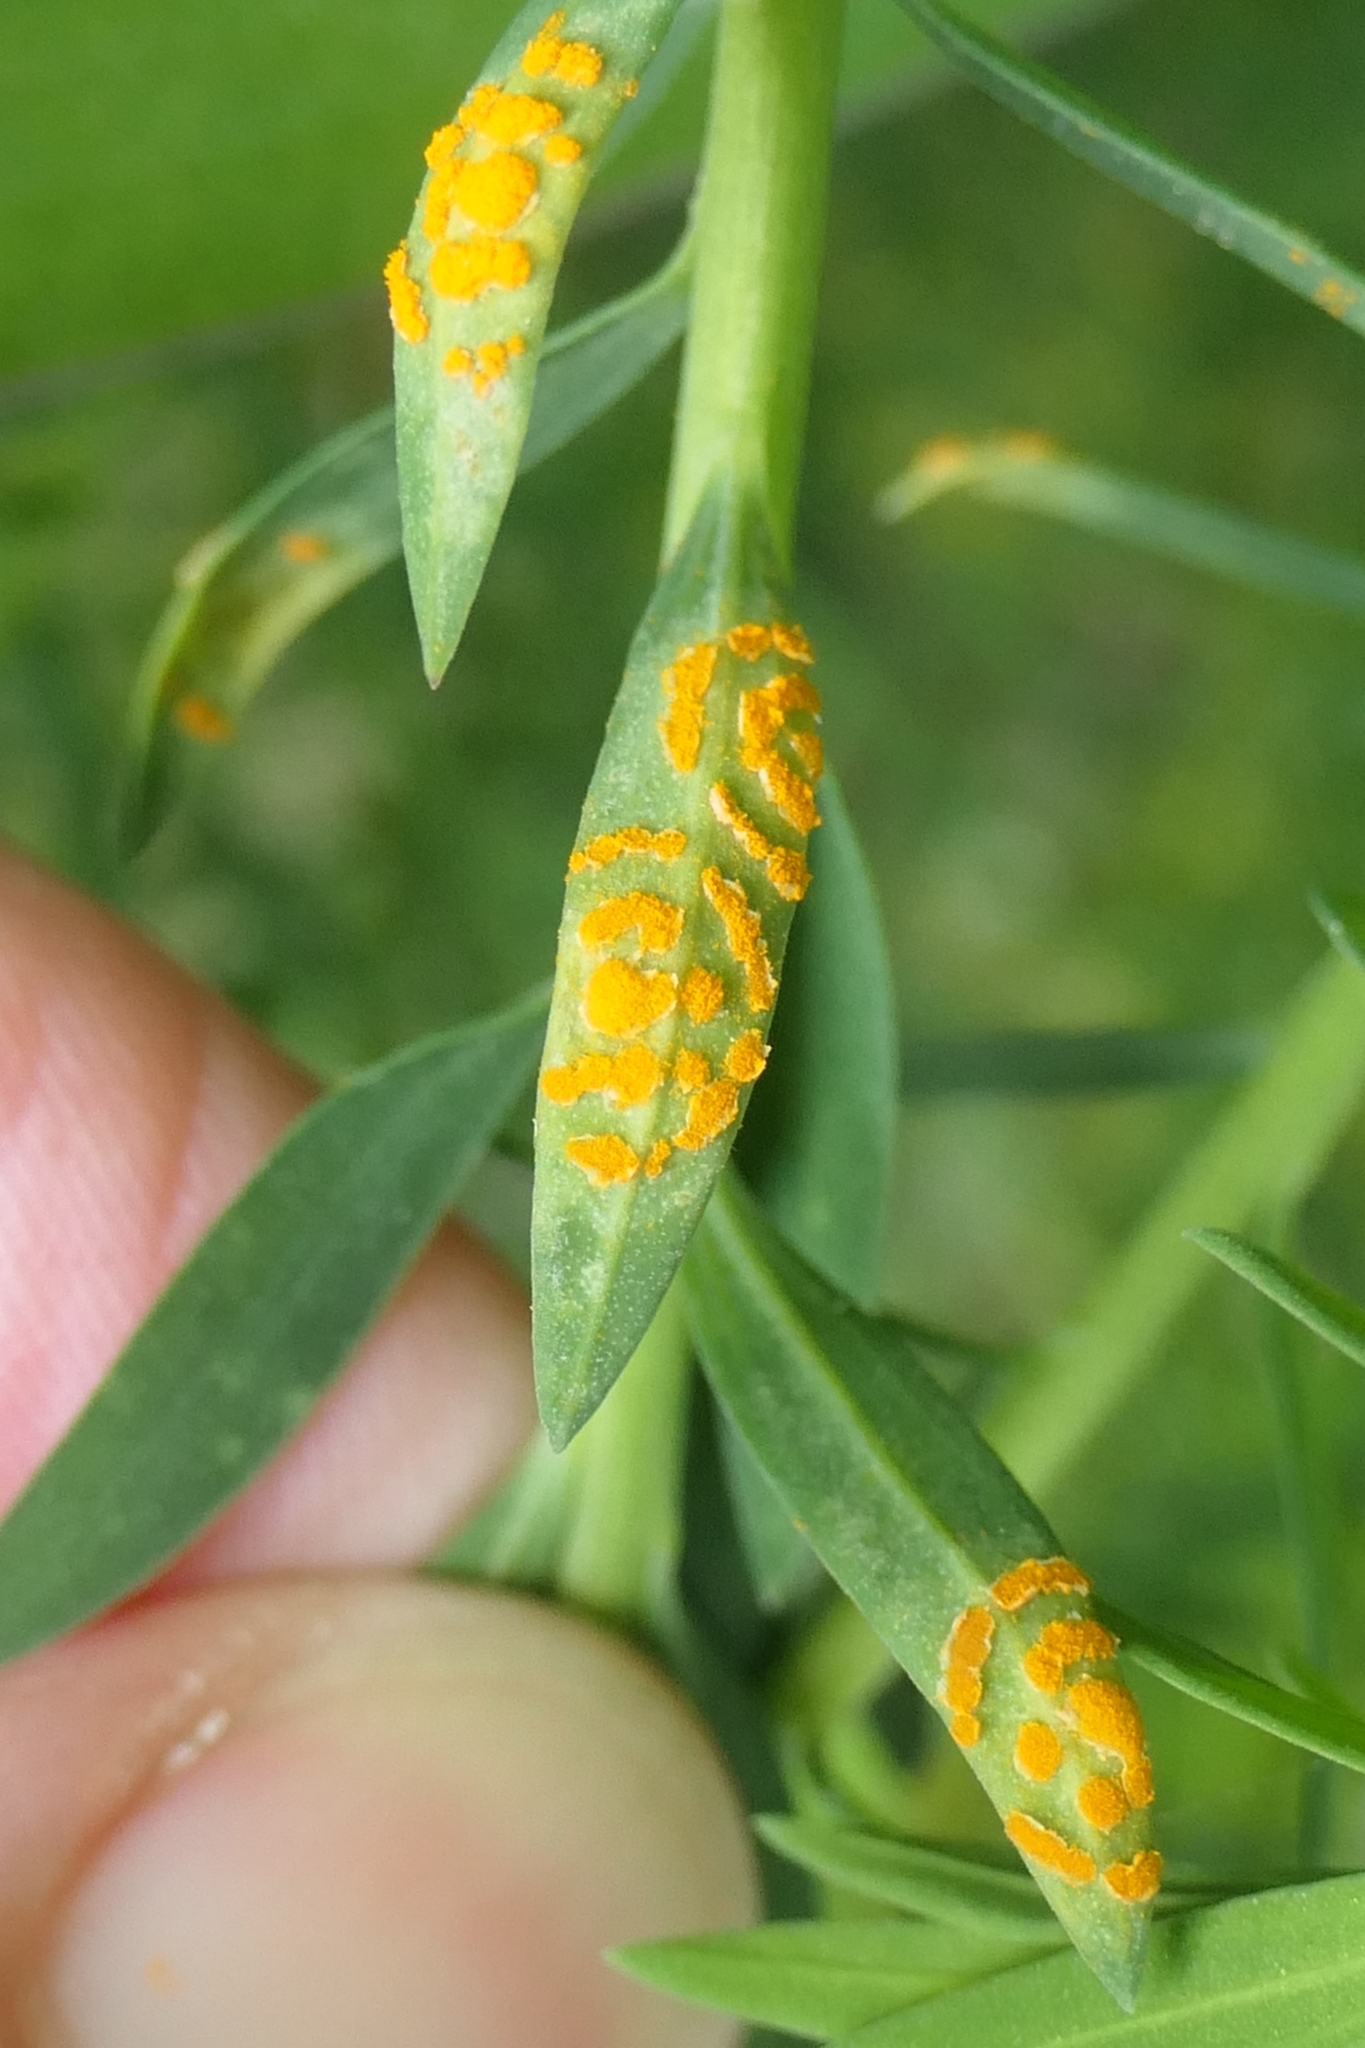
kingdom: Fungi
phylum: Basidiomycota
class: Pucciniomycetes
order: Pucciniales
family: Melampsoraceae
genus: Melampsora
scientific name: Melampsora lini
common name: Flax rust
